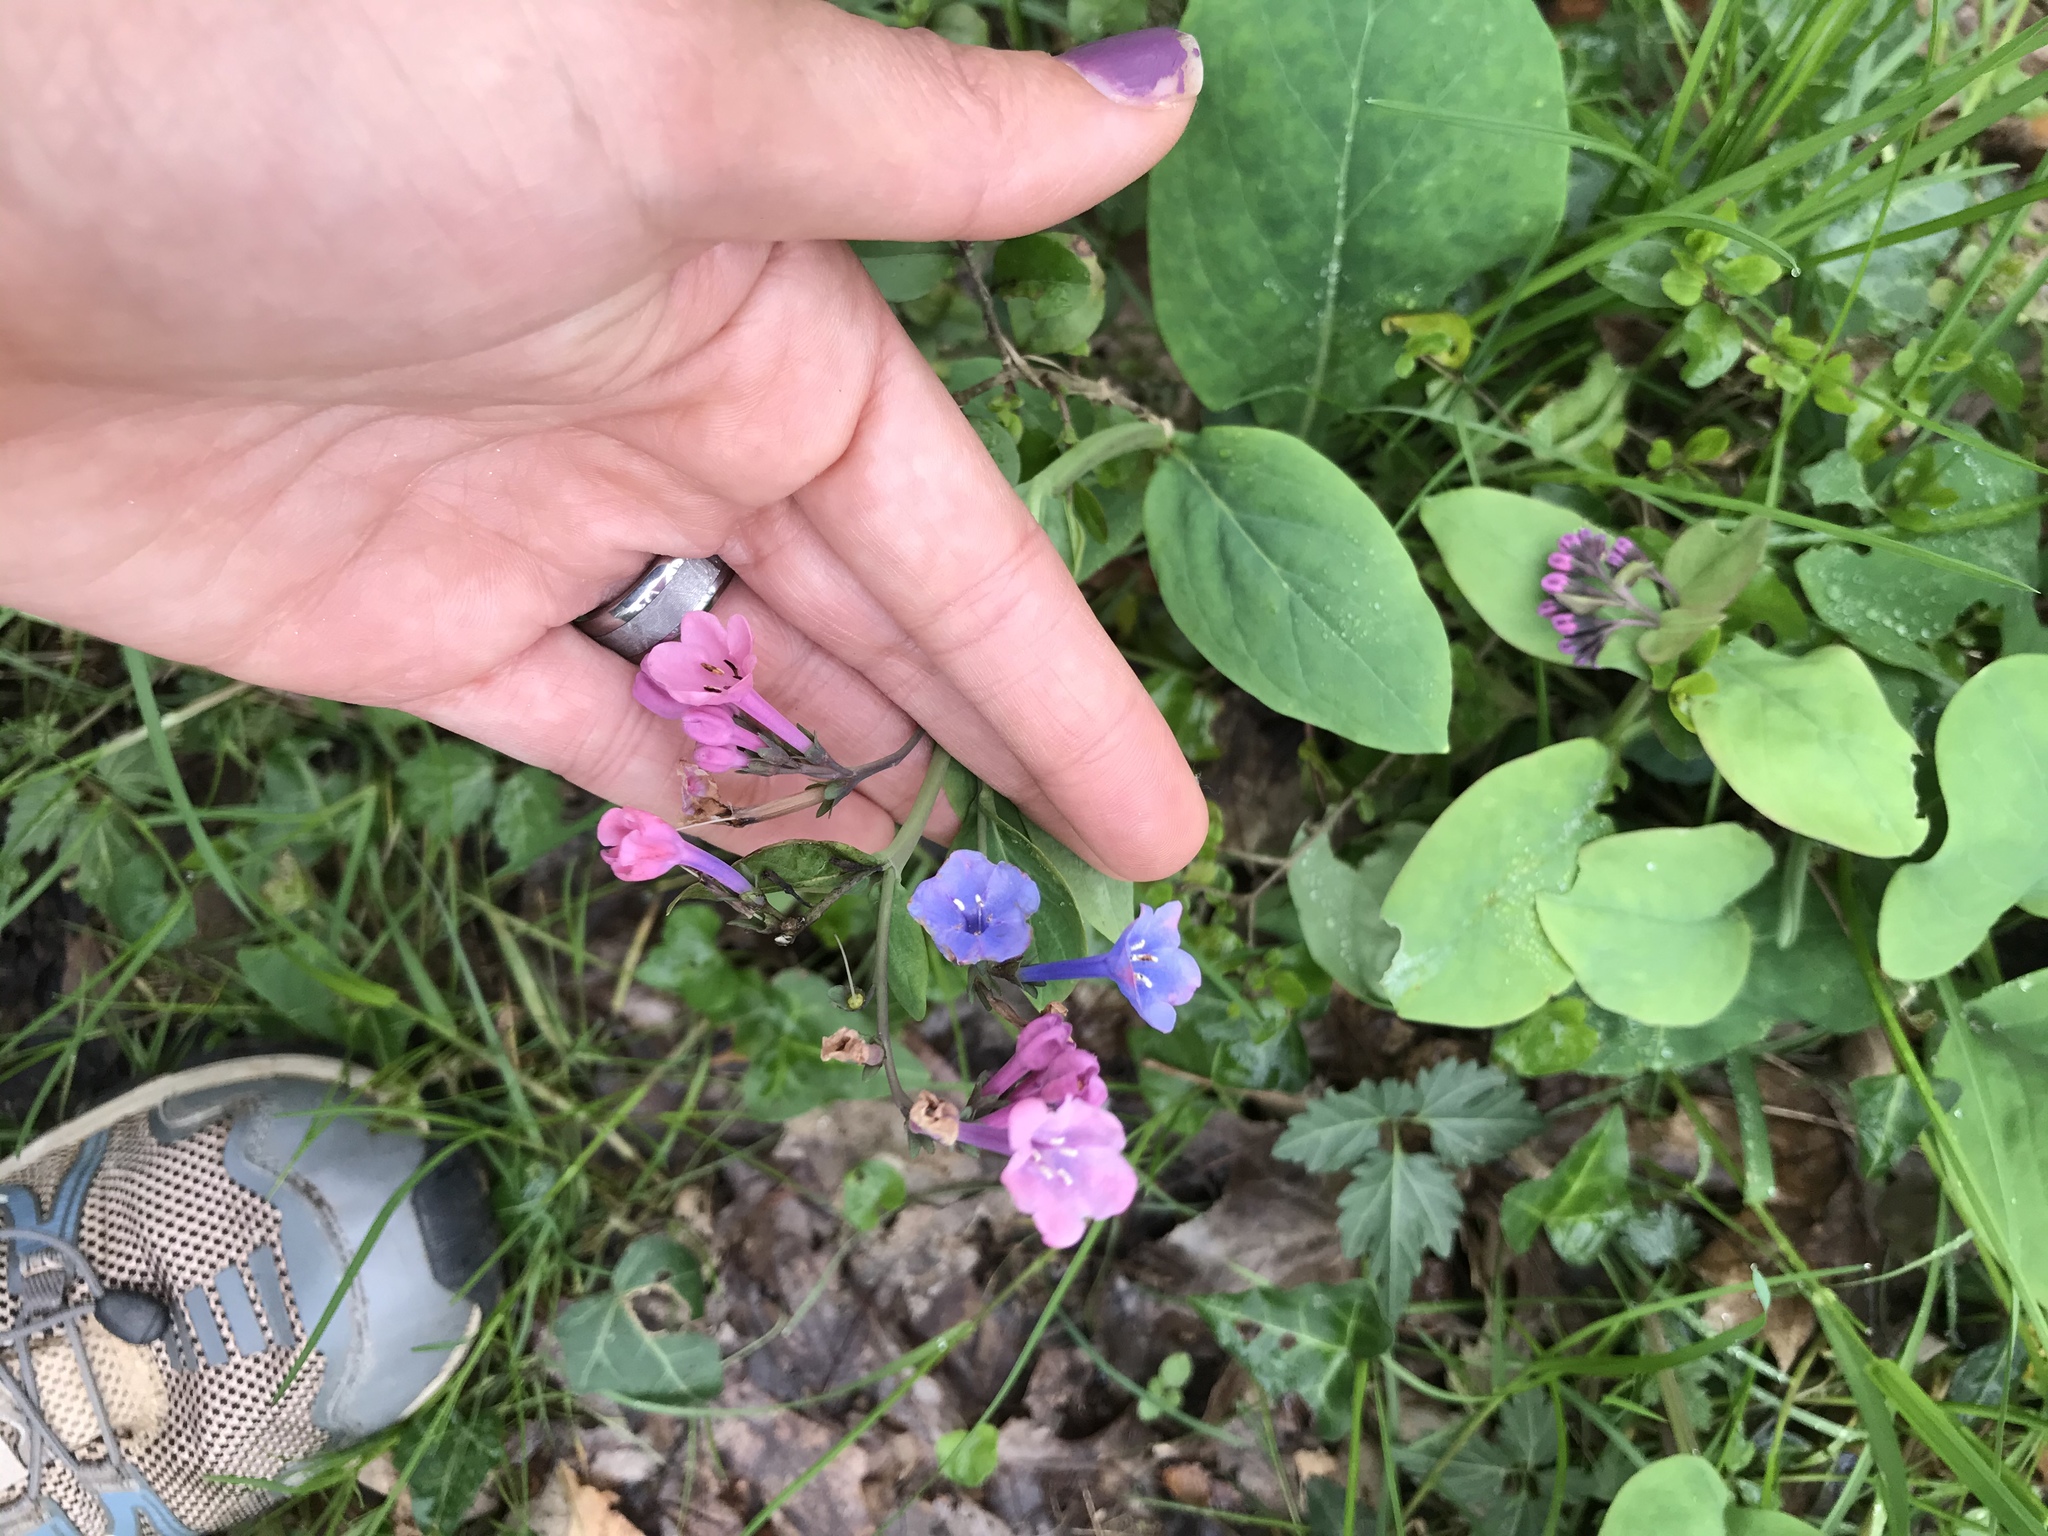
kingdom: Plantae
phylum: Tracheophyta
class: Magnoliopsida
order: Boraginales
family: Boraginaceae
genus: Mertensia
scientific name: Mertensia virginica
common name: Virginia bluebells
